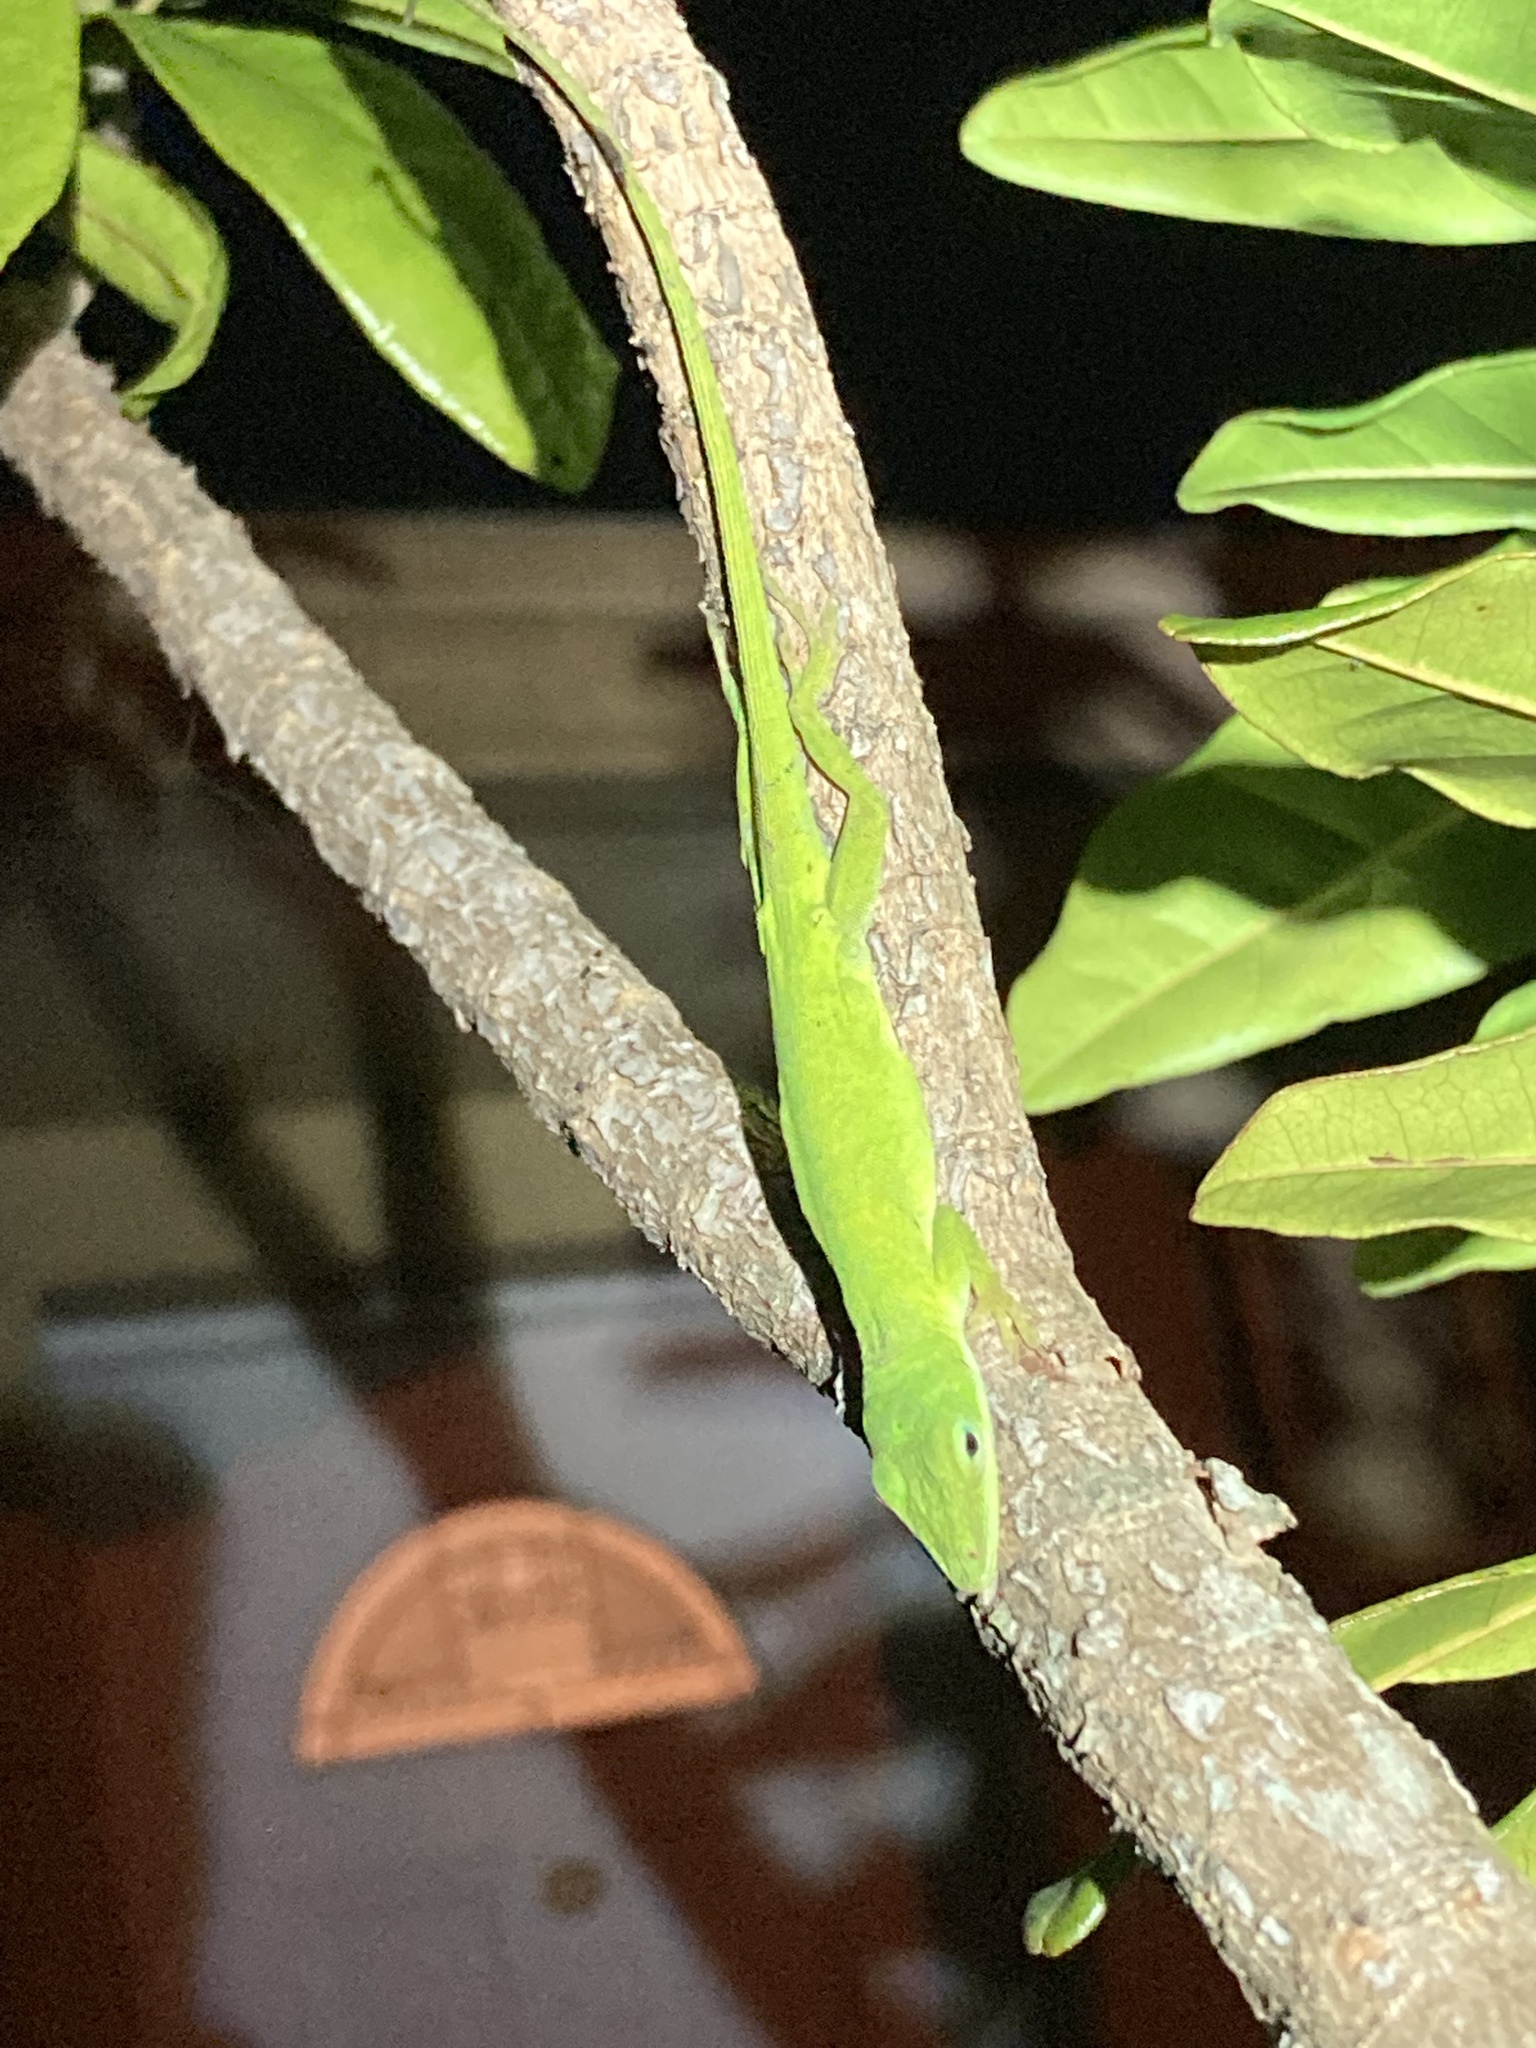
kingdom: Animalia
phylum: Chordata
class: Squamata
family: Dactyloidae
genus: Anolis
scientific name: Anolis carolinensis
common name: Green anole
